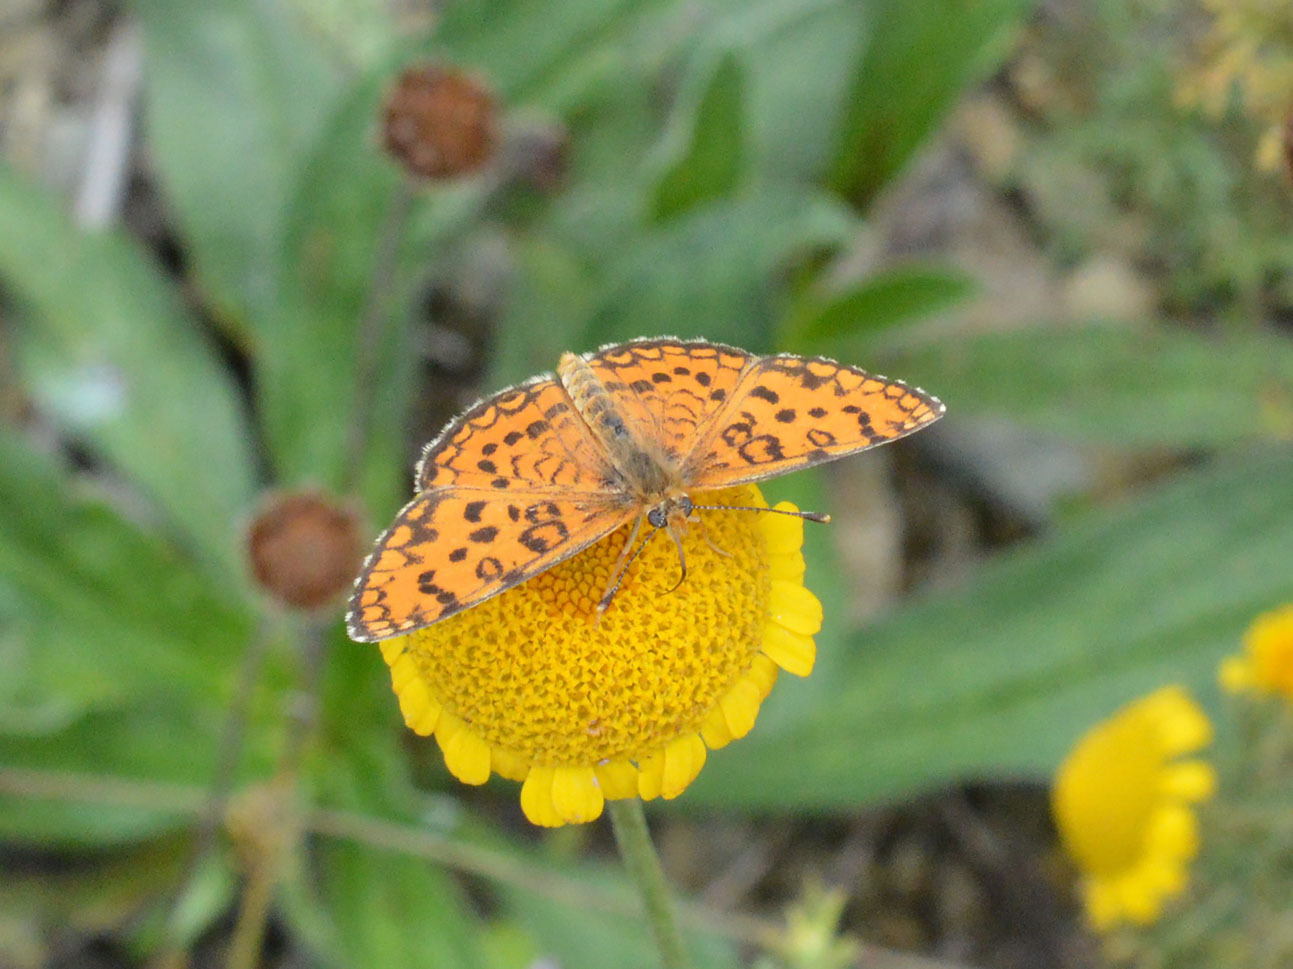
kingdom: Animalia
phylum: Arthropoda
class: Insecta
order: Lepidoptera
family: Nymphalidae
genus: Melitaea
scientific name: Melitaea trivia
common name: Lesser spotted fritillary
